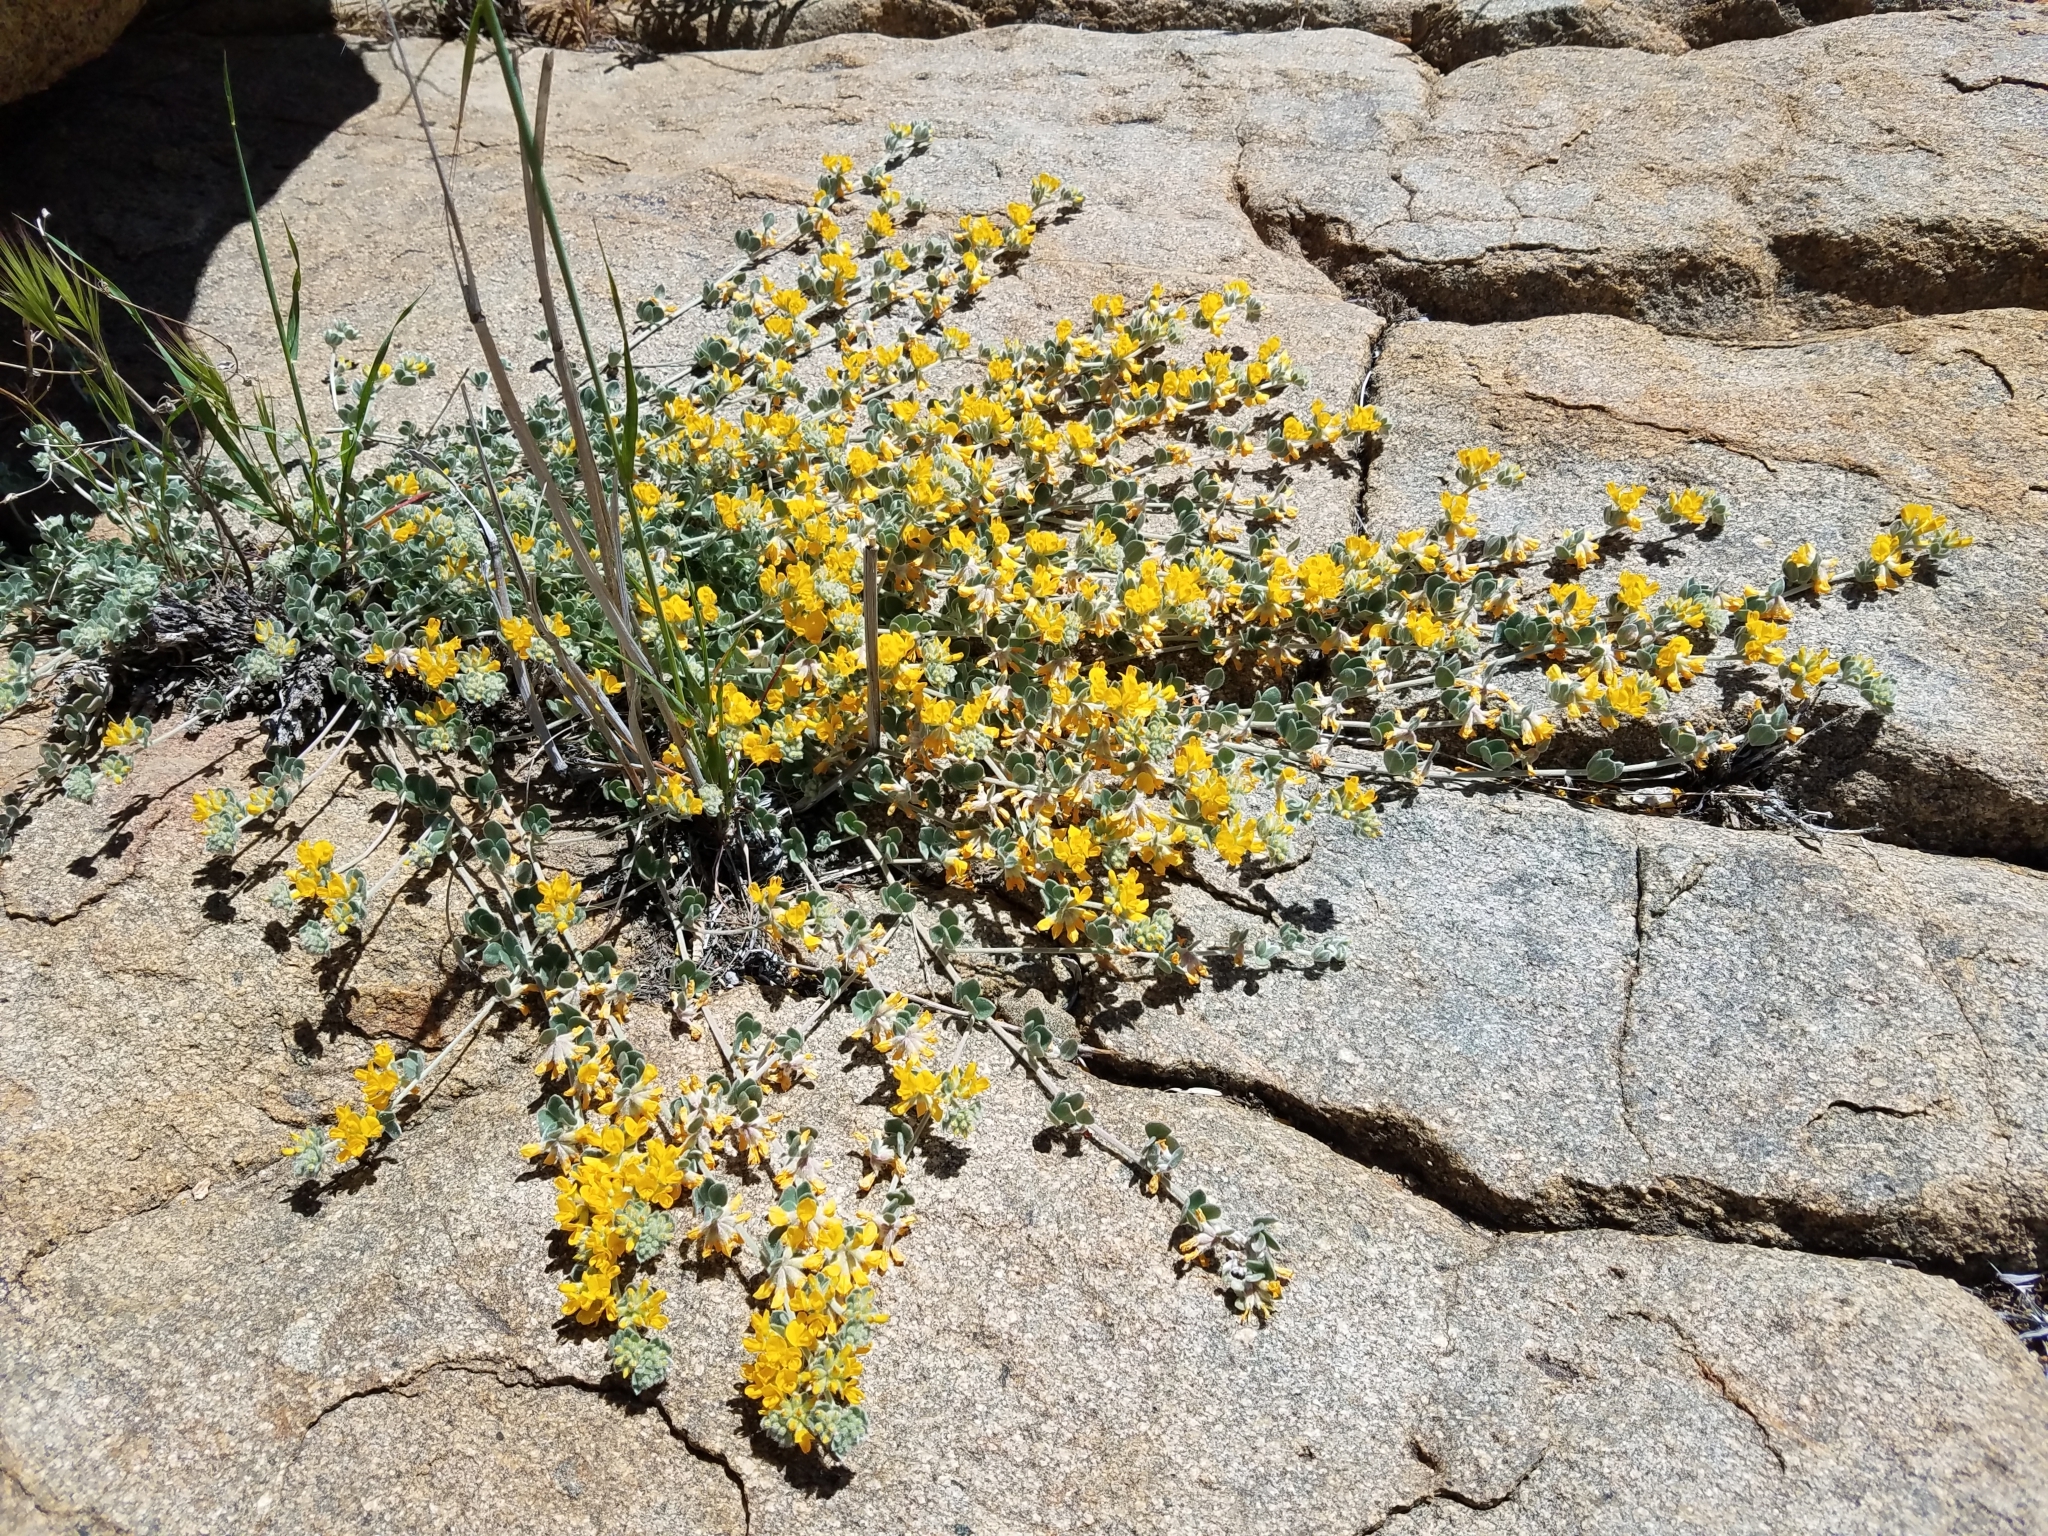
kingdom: Plantae
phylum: Tracheophyta
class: Magnoliopsida
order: Fabales
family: Fabaceae
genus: Acmispon
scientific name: Acmispon argophyllus
